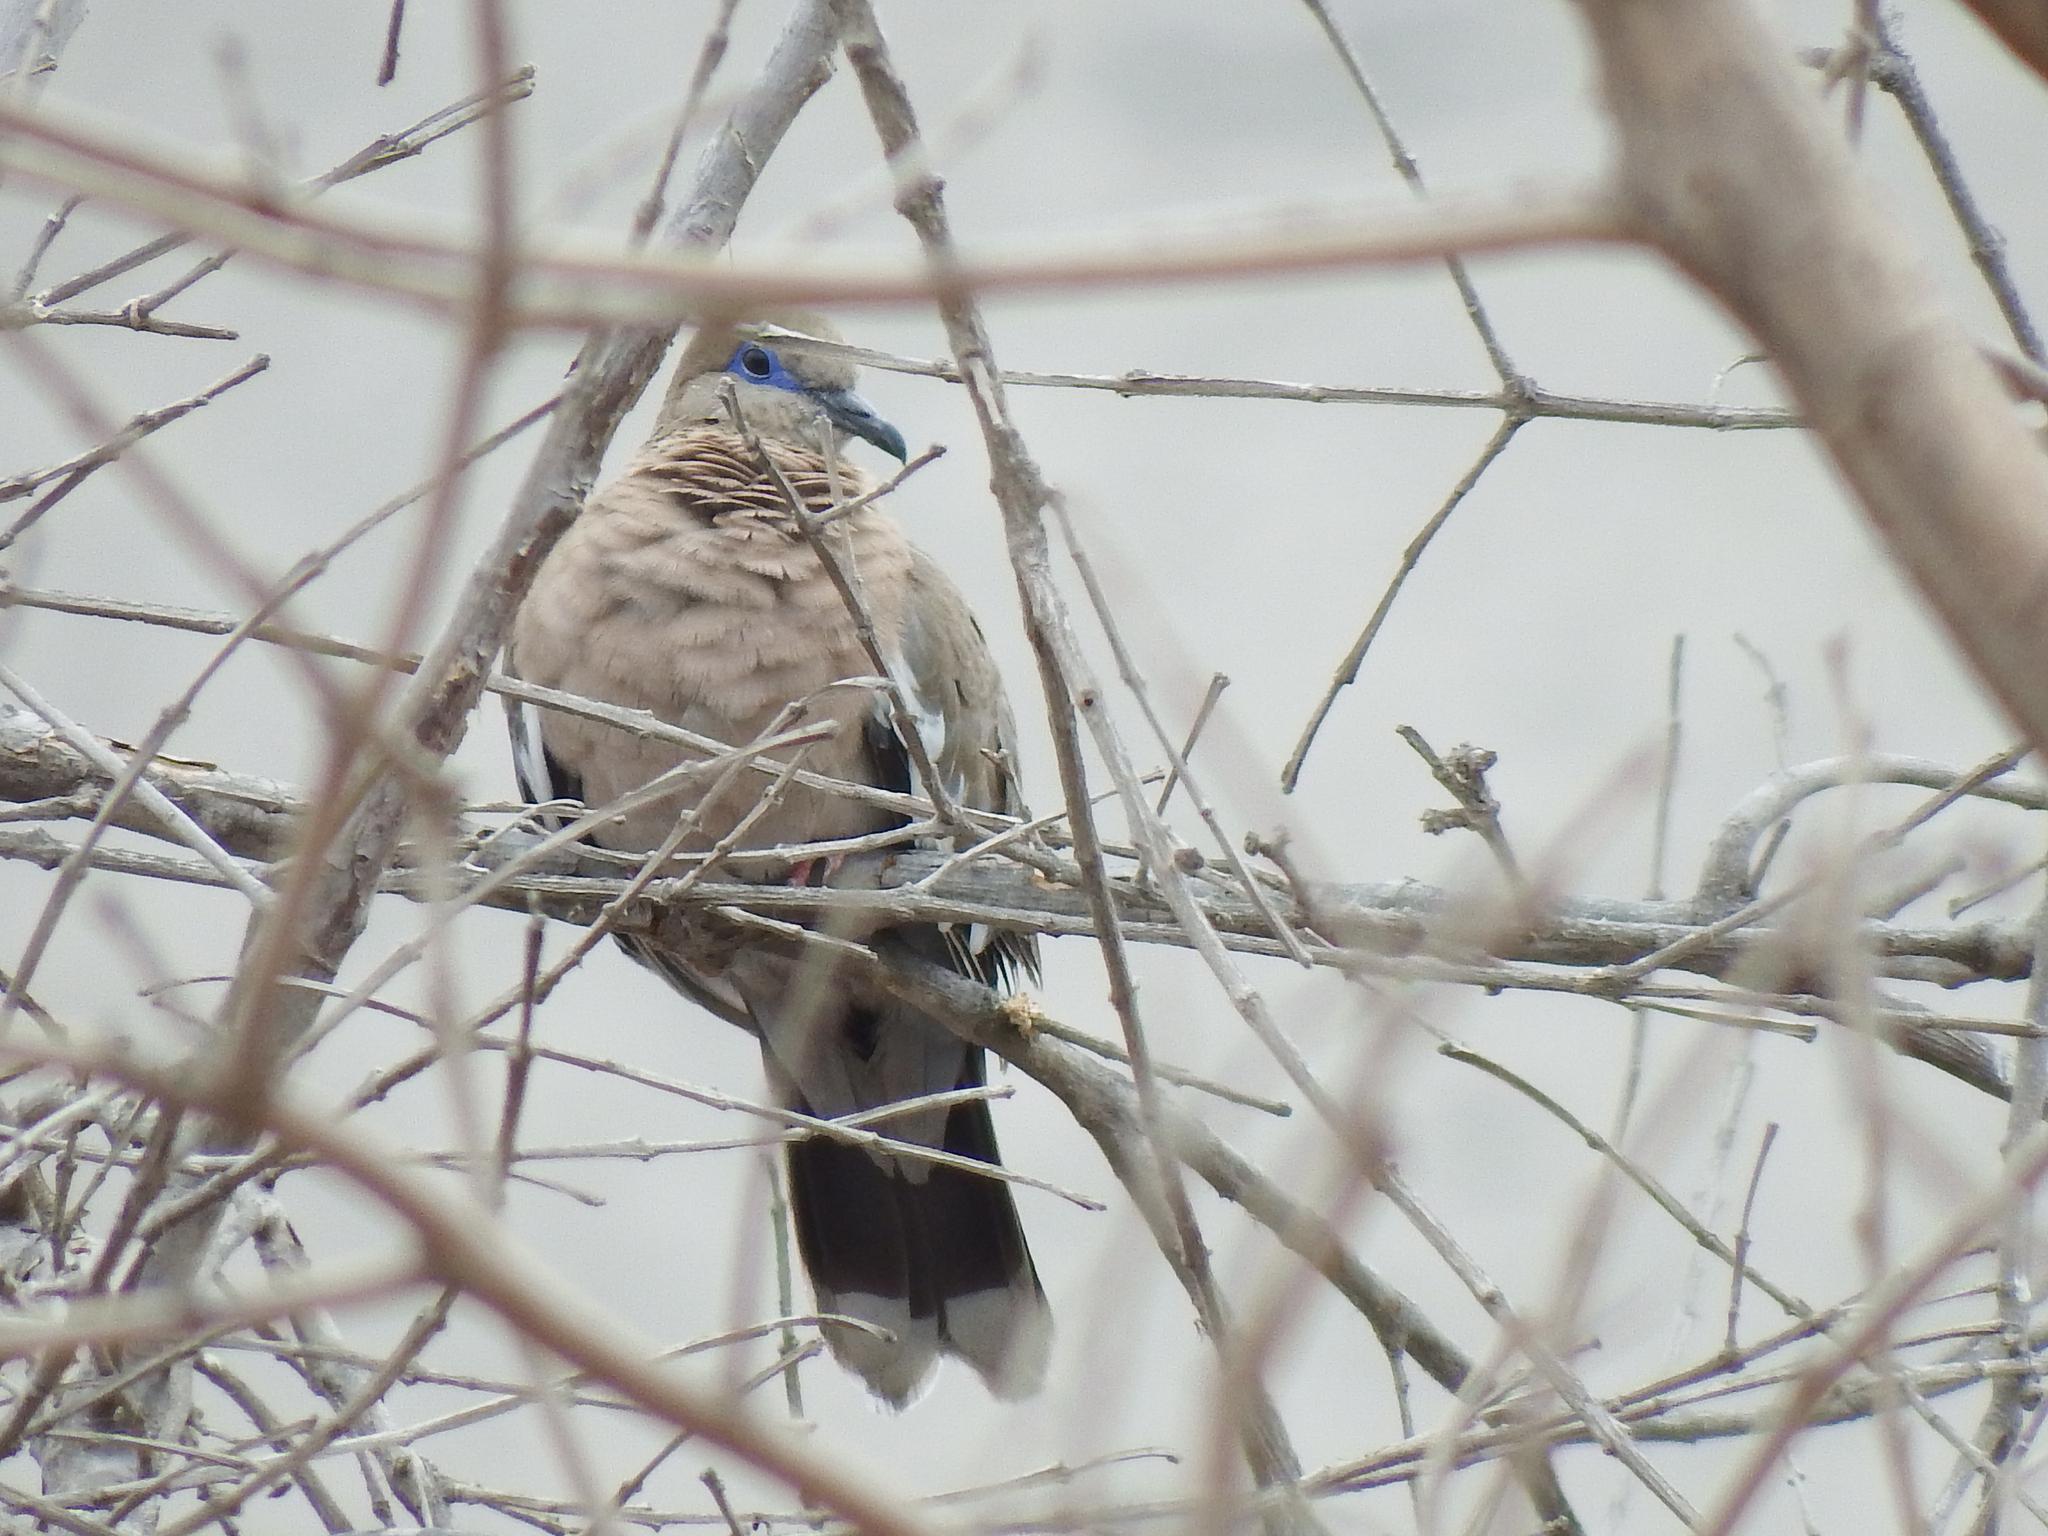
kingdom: Animalia
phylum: Chordata
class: Aves
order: Columbiformes
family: Columbidae
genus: Zenaida
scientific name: Zenaida meloda
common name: West peruvian dove
